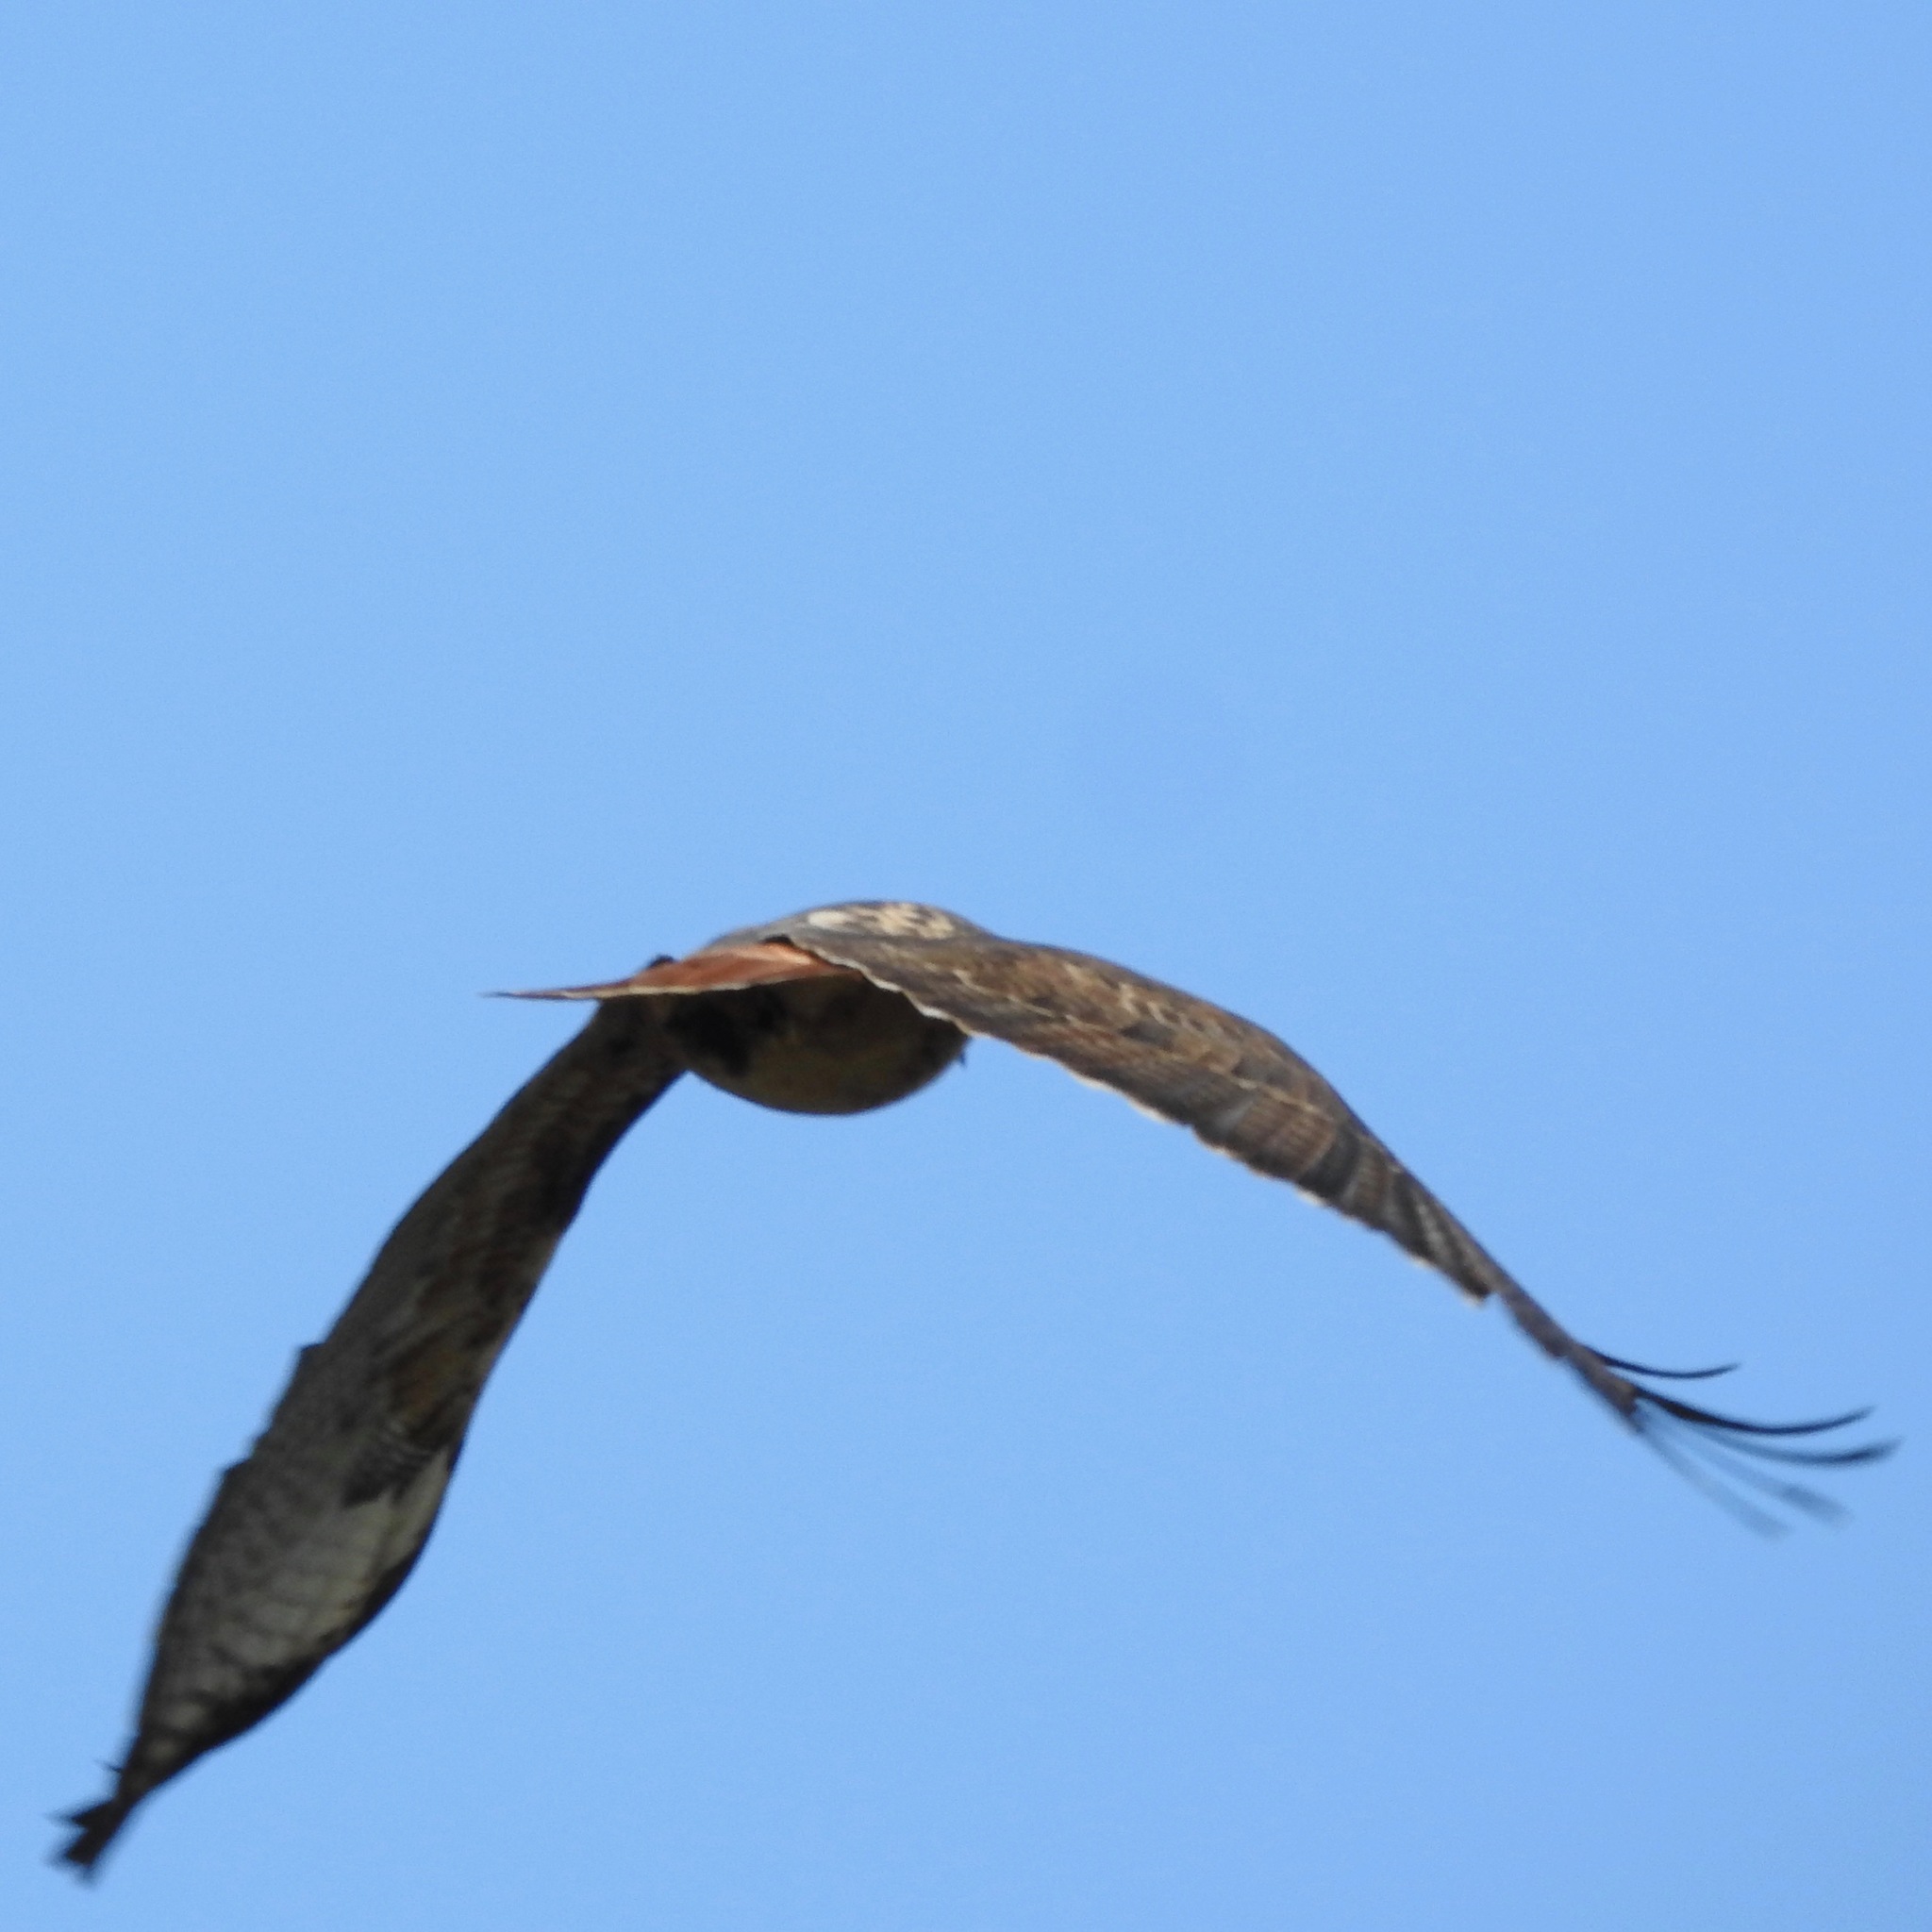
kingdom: Animalia
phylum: Chordata
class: Aves
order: Accipitriformes
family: Accipitridae
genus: Buteo
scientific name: Buteo jamaicensis
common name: Red-tailed hawk
